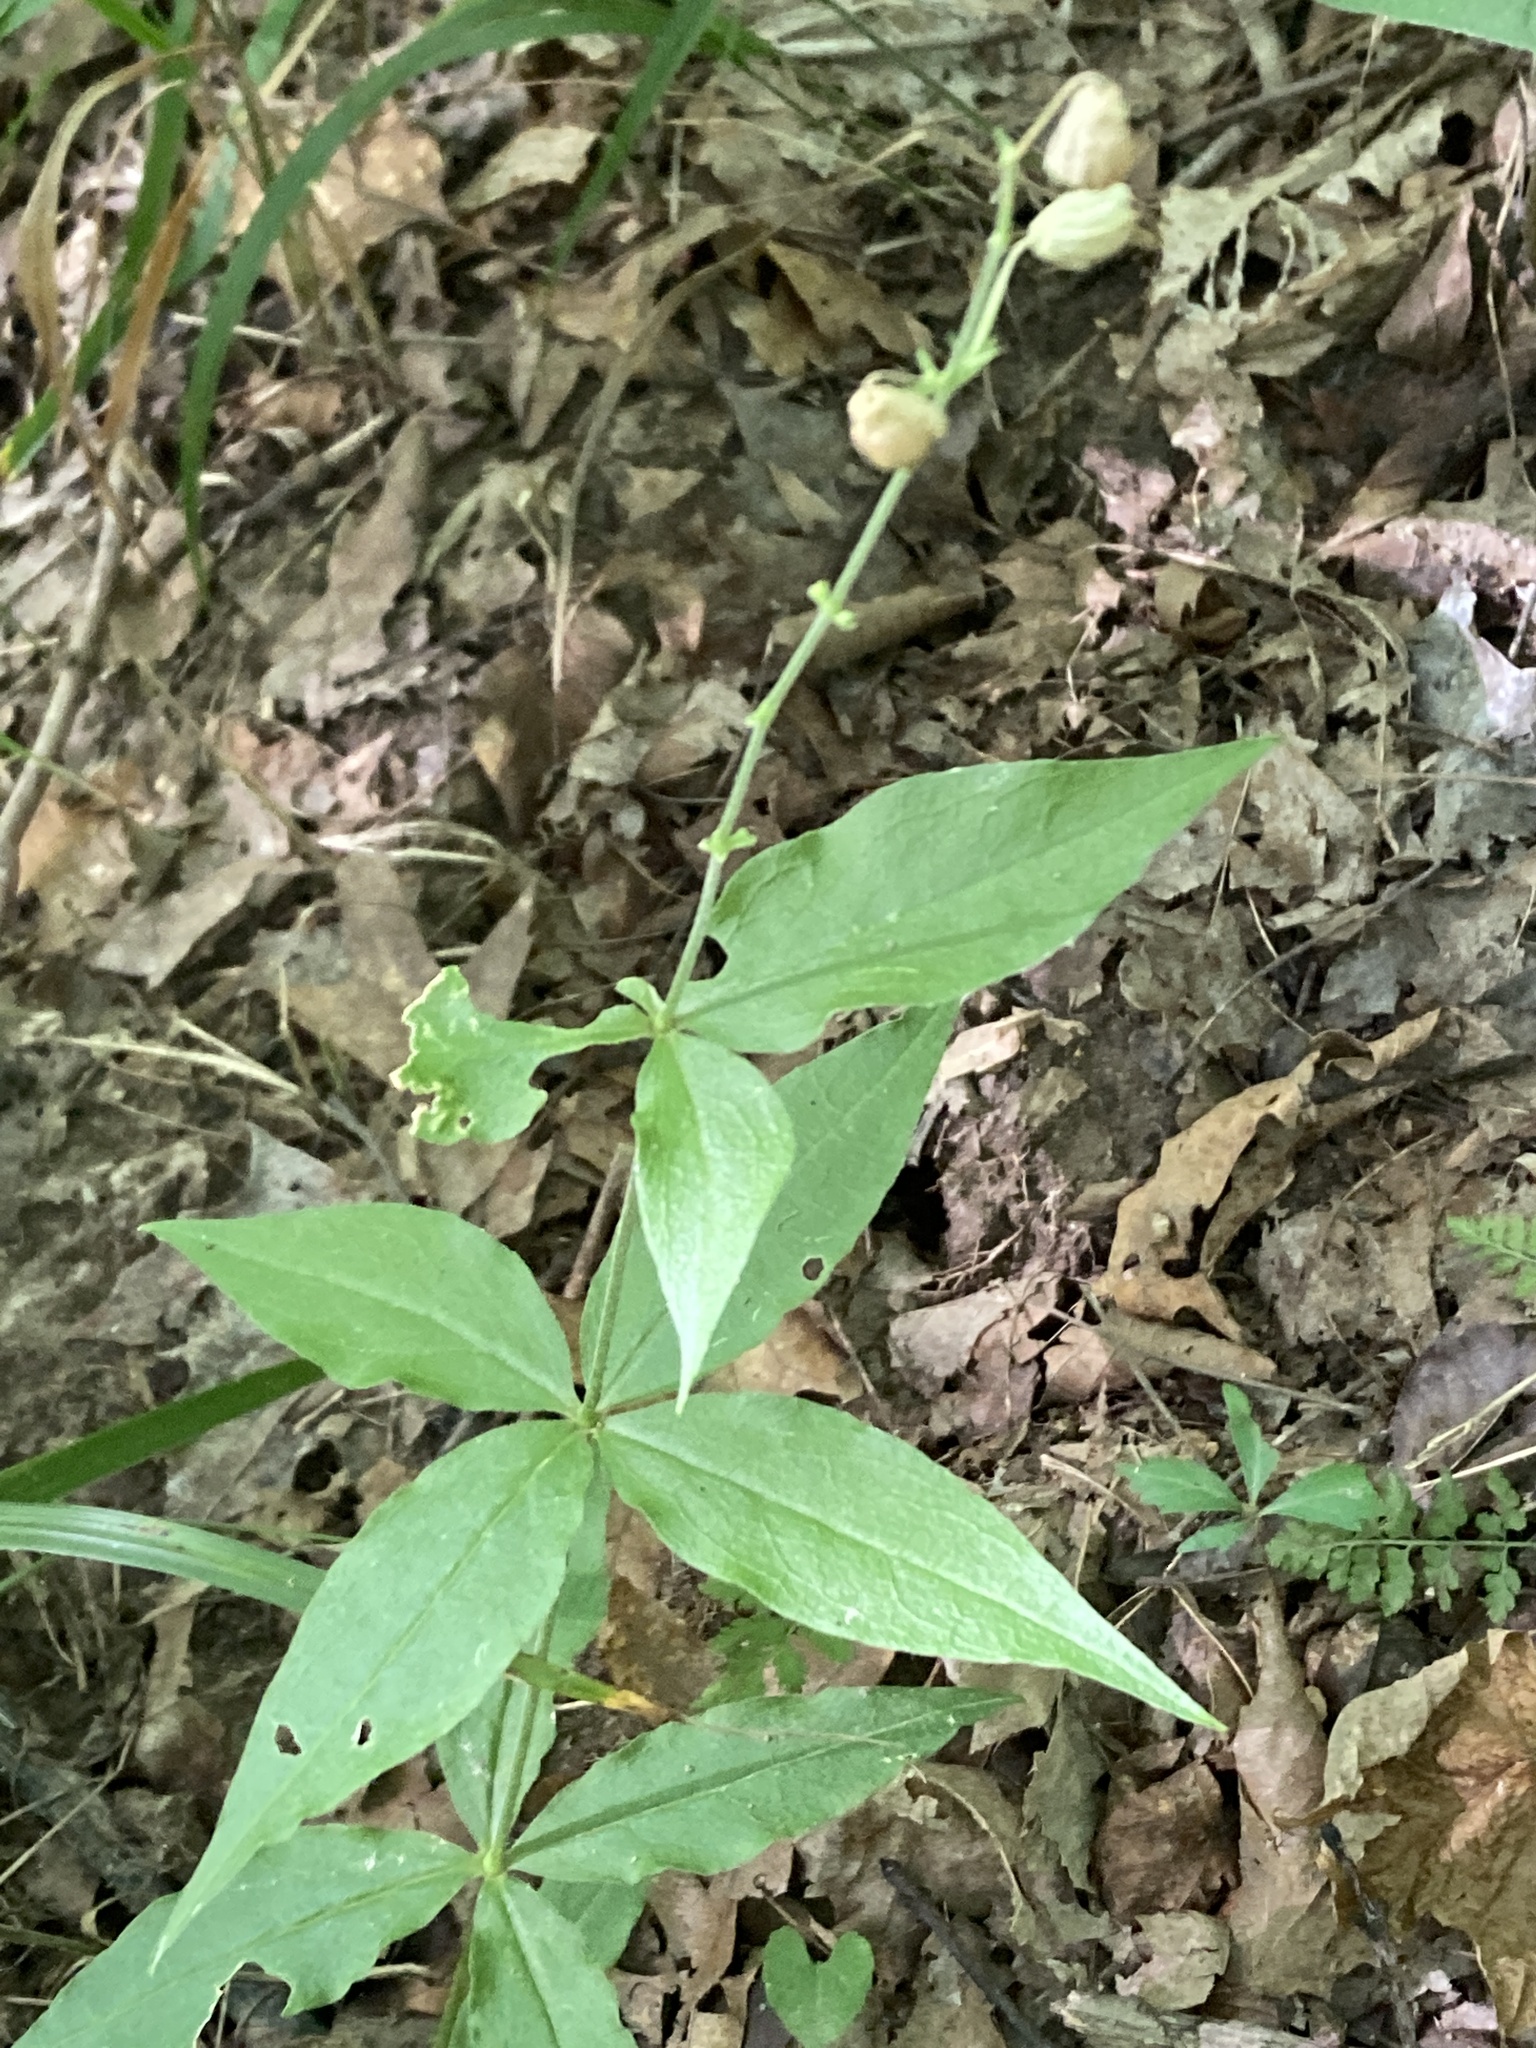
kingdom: Plantae
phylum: Tracheophyta
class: Magnoliopsida
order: Caryophyllales
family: Caryophyllaceae
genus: Silene
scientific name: Silene stellata
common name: Starry campion
